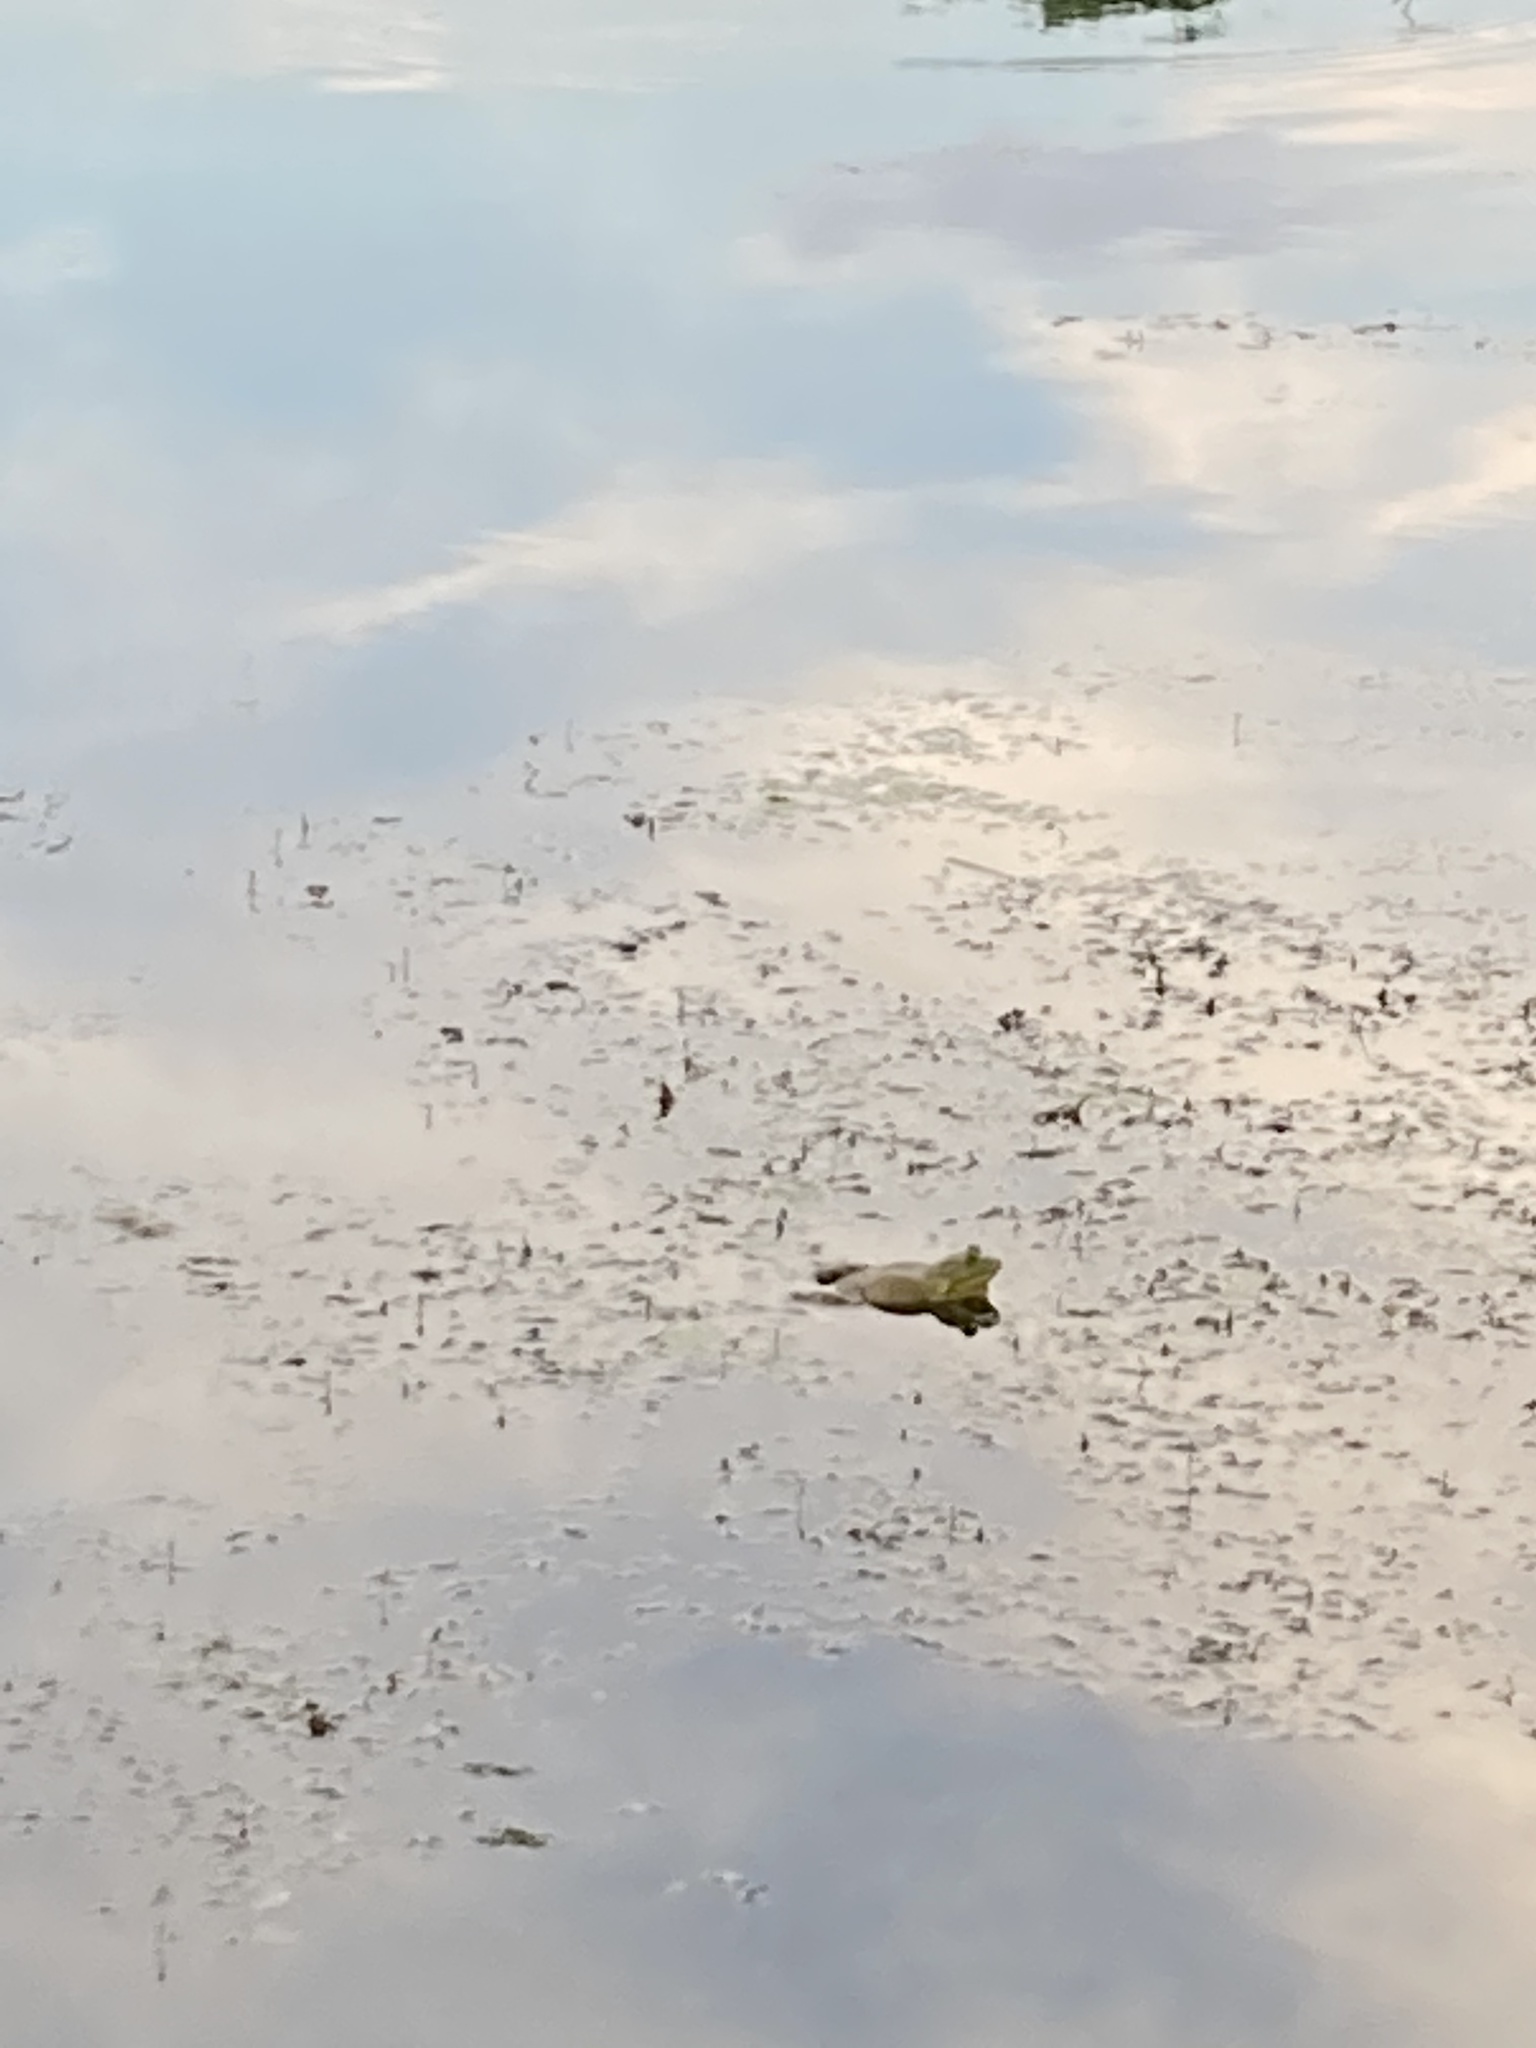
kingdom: Animalia
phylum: Chordata
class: Amphibia
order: Anura
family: Ranidae
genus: Lithobates
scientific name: Lithobates catesbeianus
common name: American bullfrog
